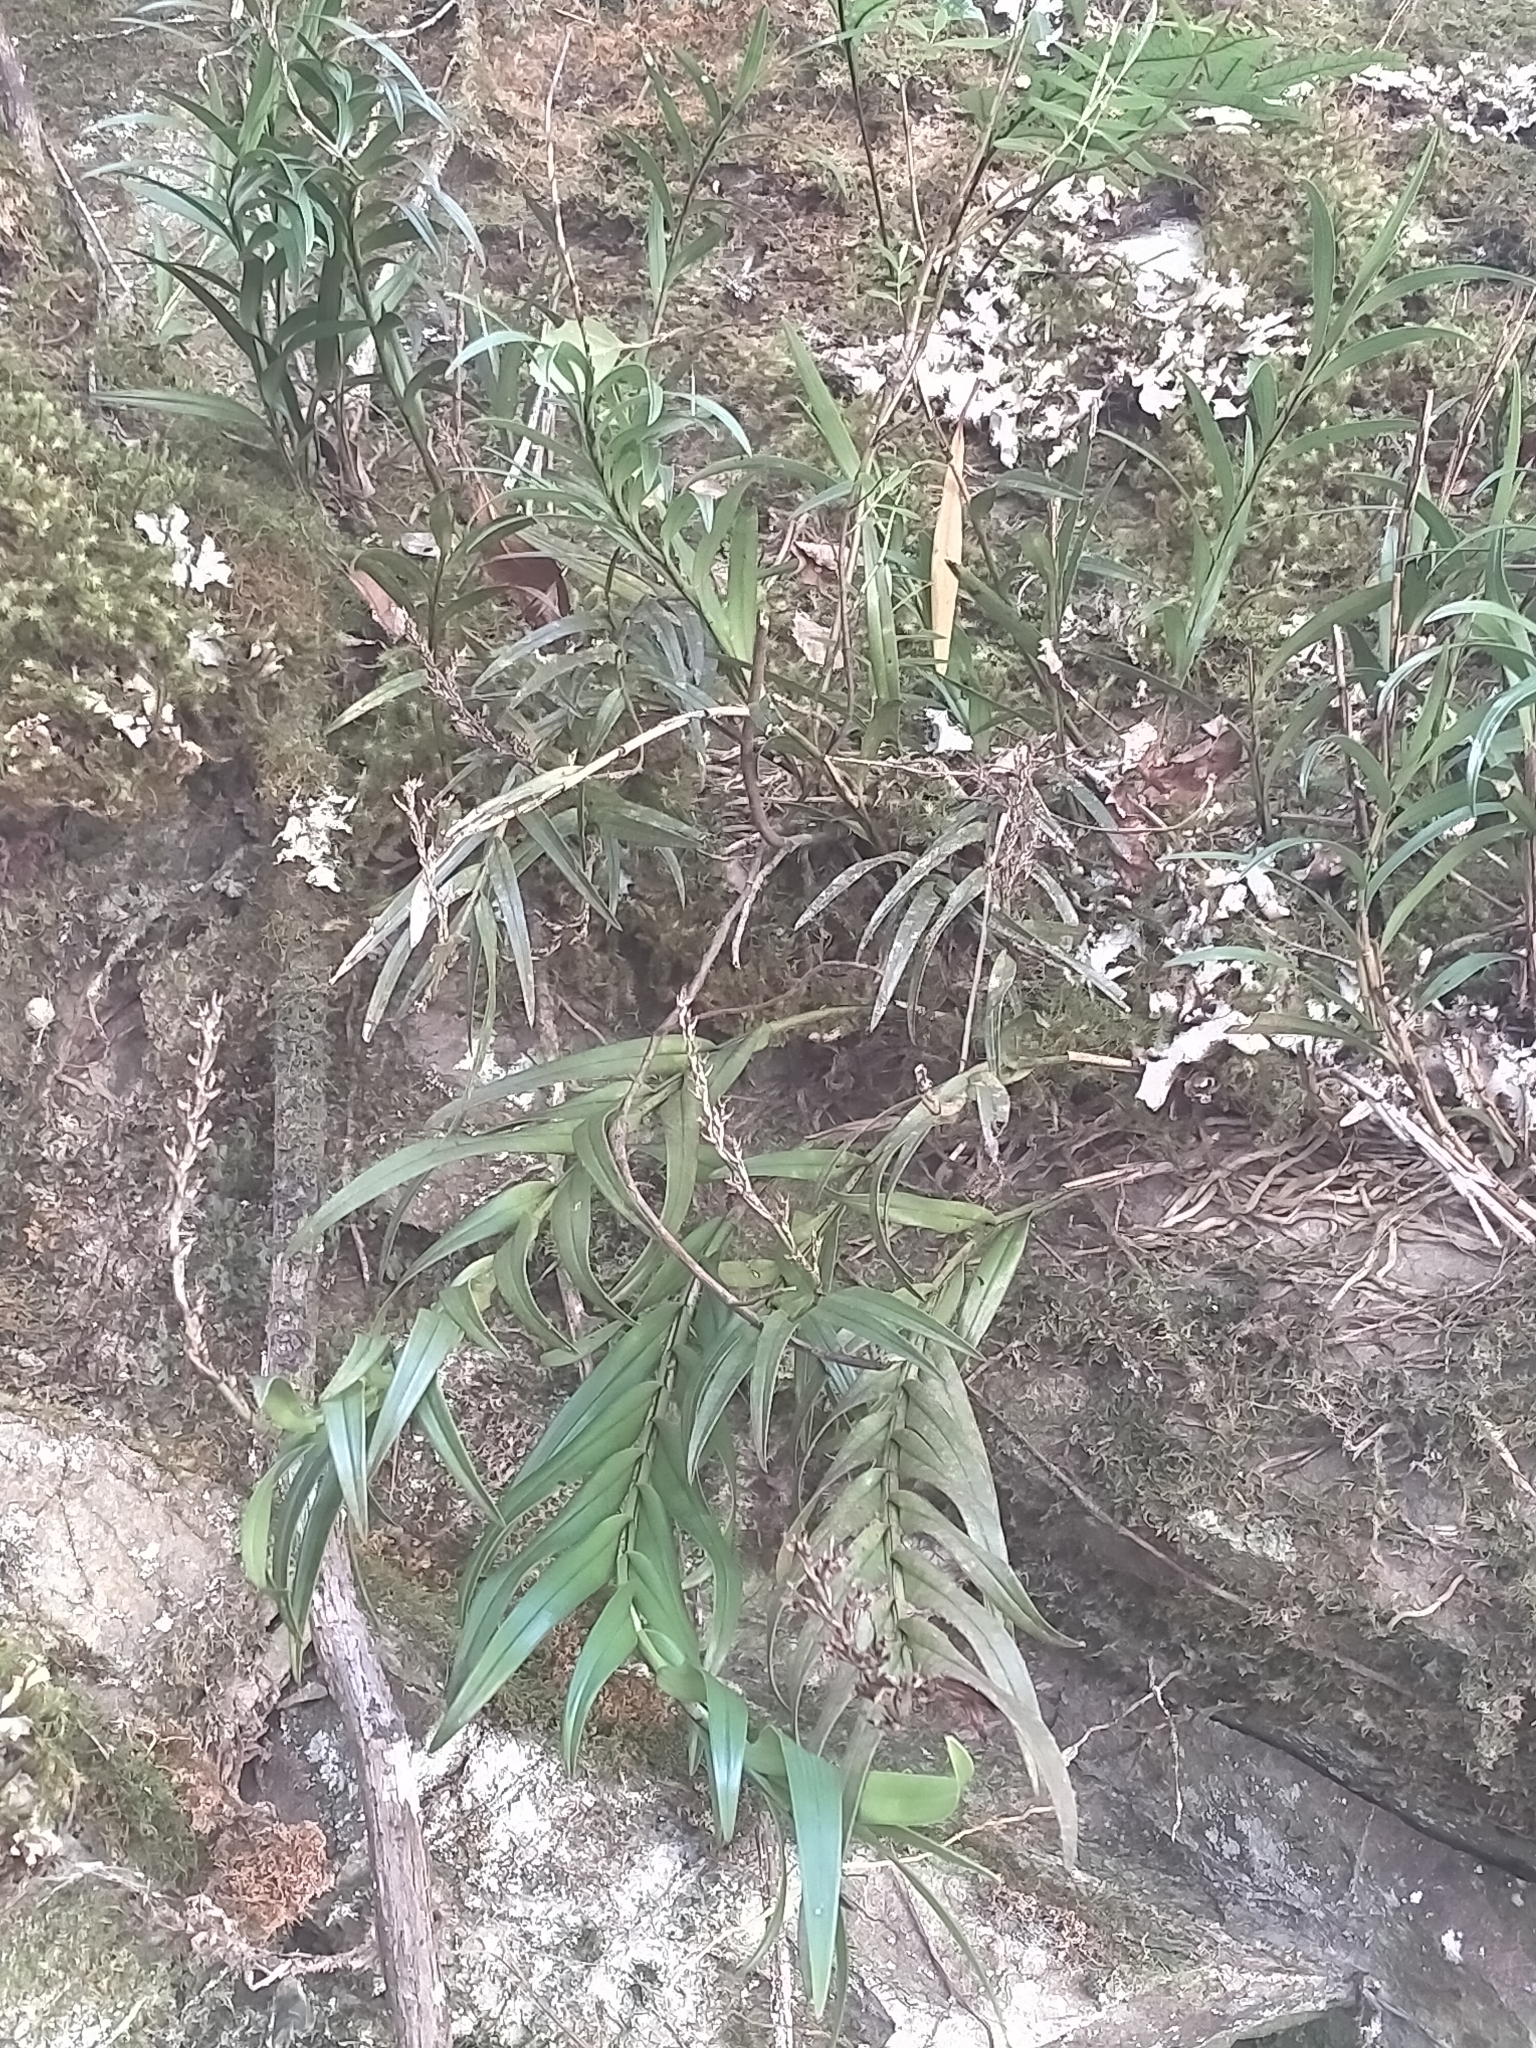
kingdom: Plantae
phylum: Tracheophyta
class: Liliopsida
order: Asparagales
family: Orchidaceae
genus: Earina
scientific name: Earina autumnalis
